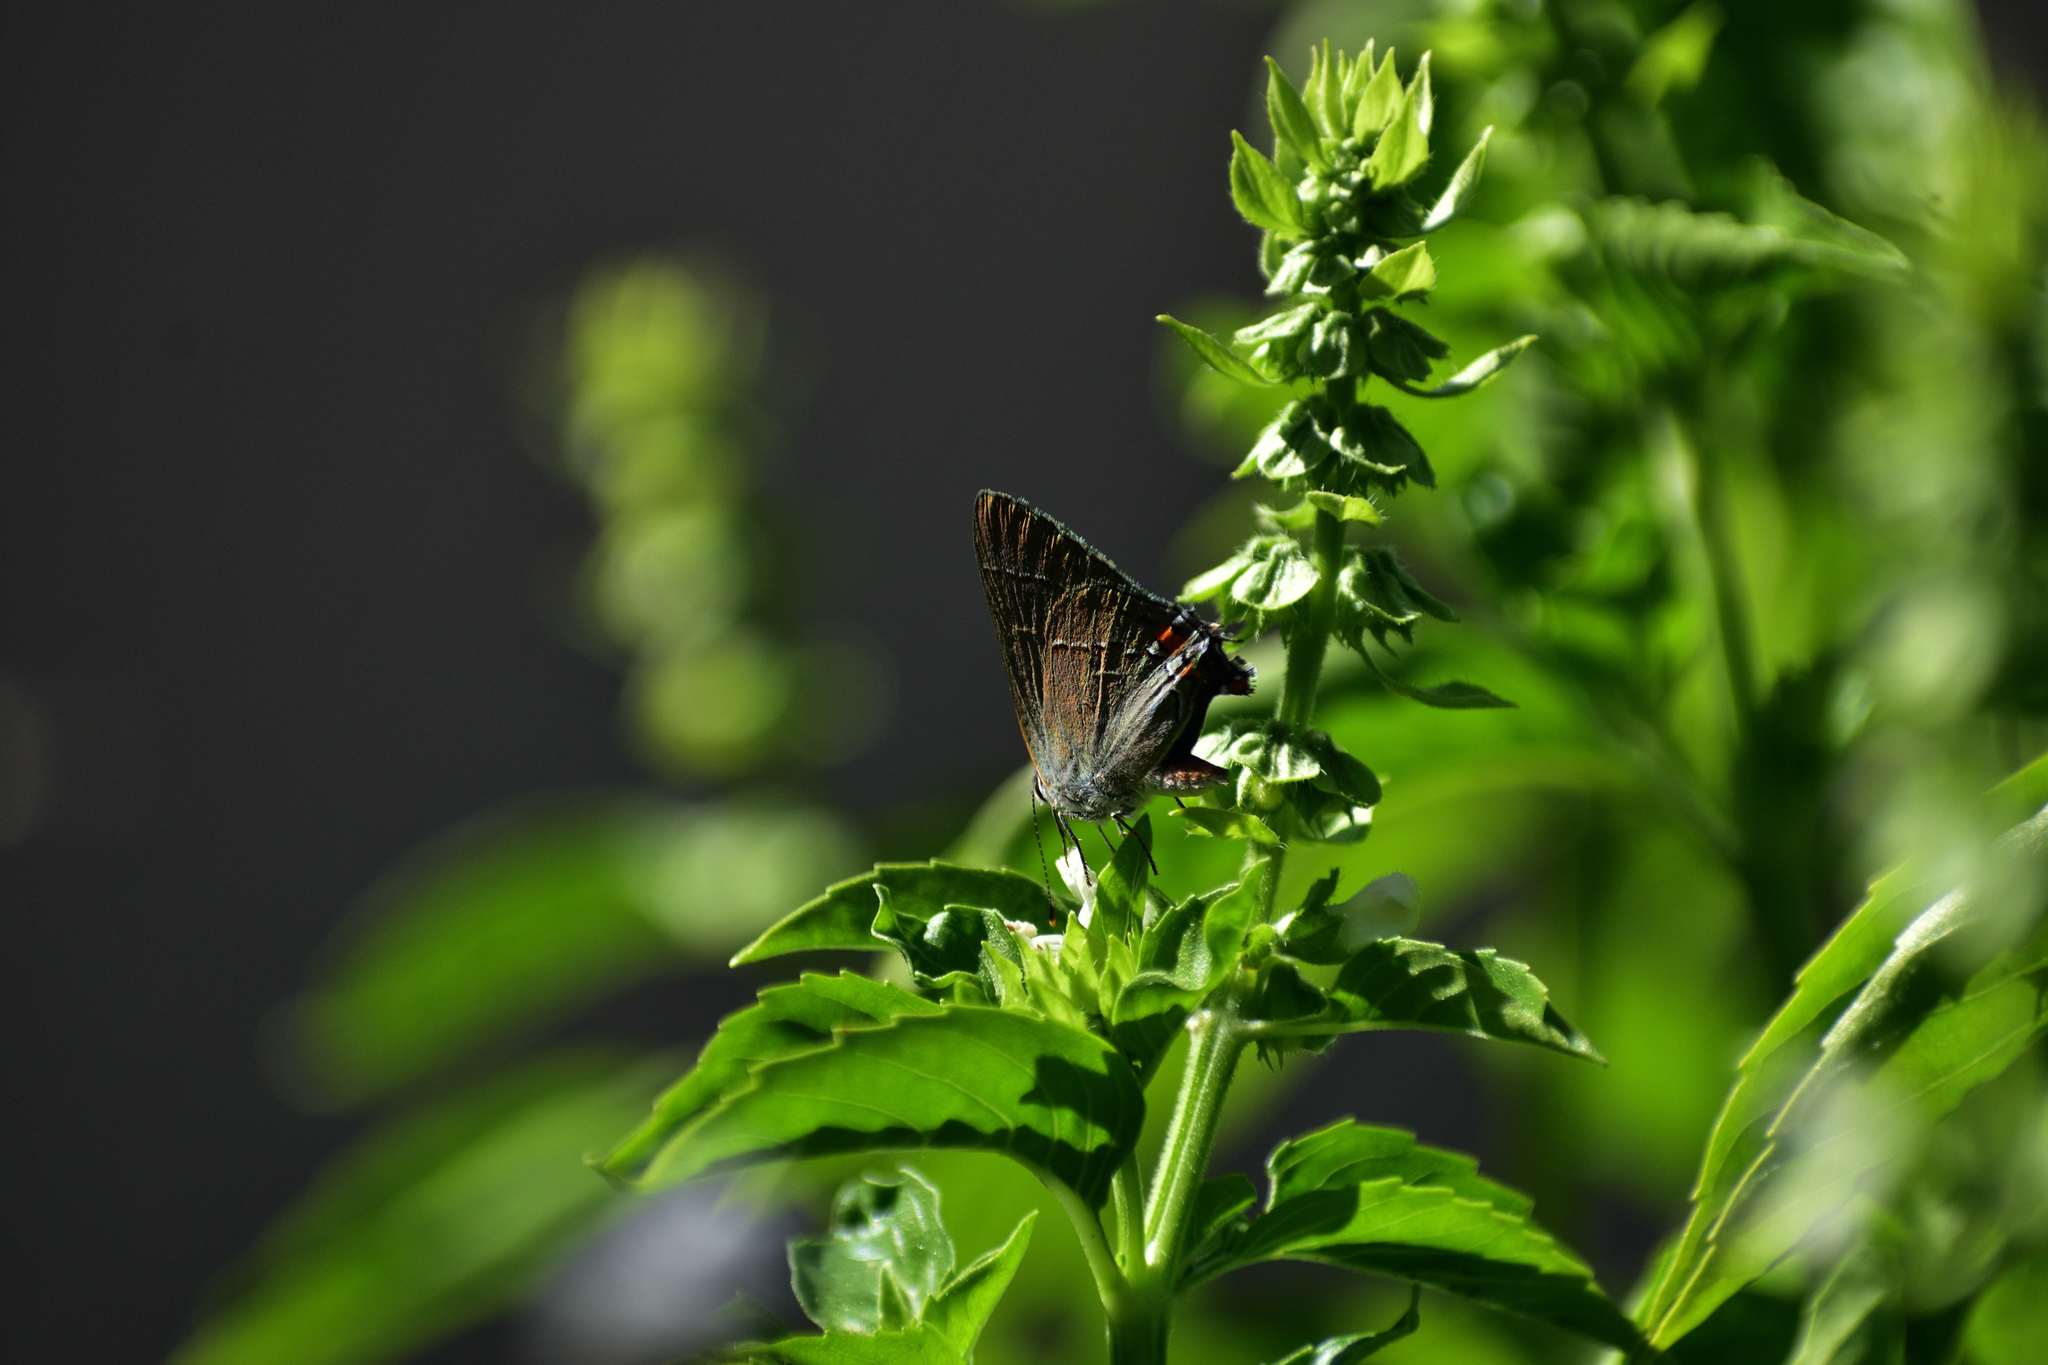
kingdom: Animalia
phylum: Arthropoda
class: Insecta
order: Lepidoptera
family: Lycaenidae
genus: Strymon
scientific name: Strymon melinus
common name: Gray hairstreak
